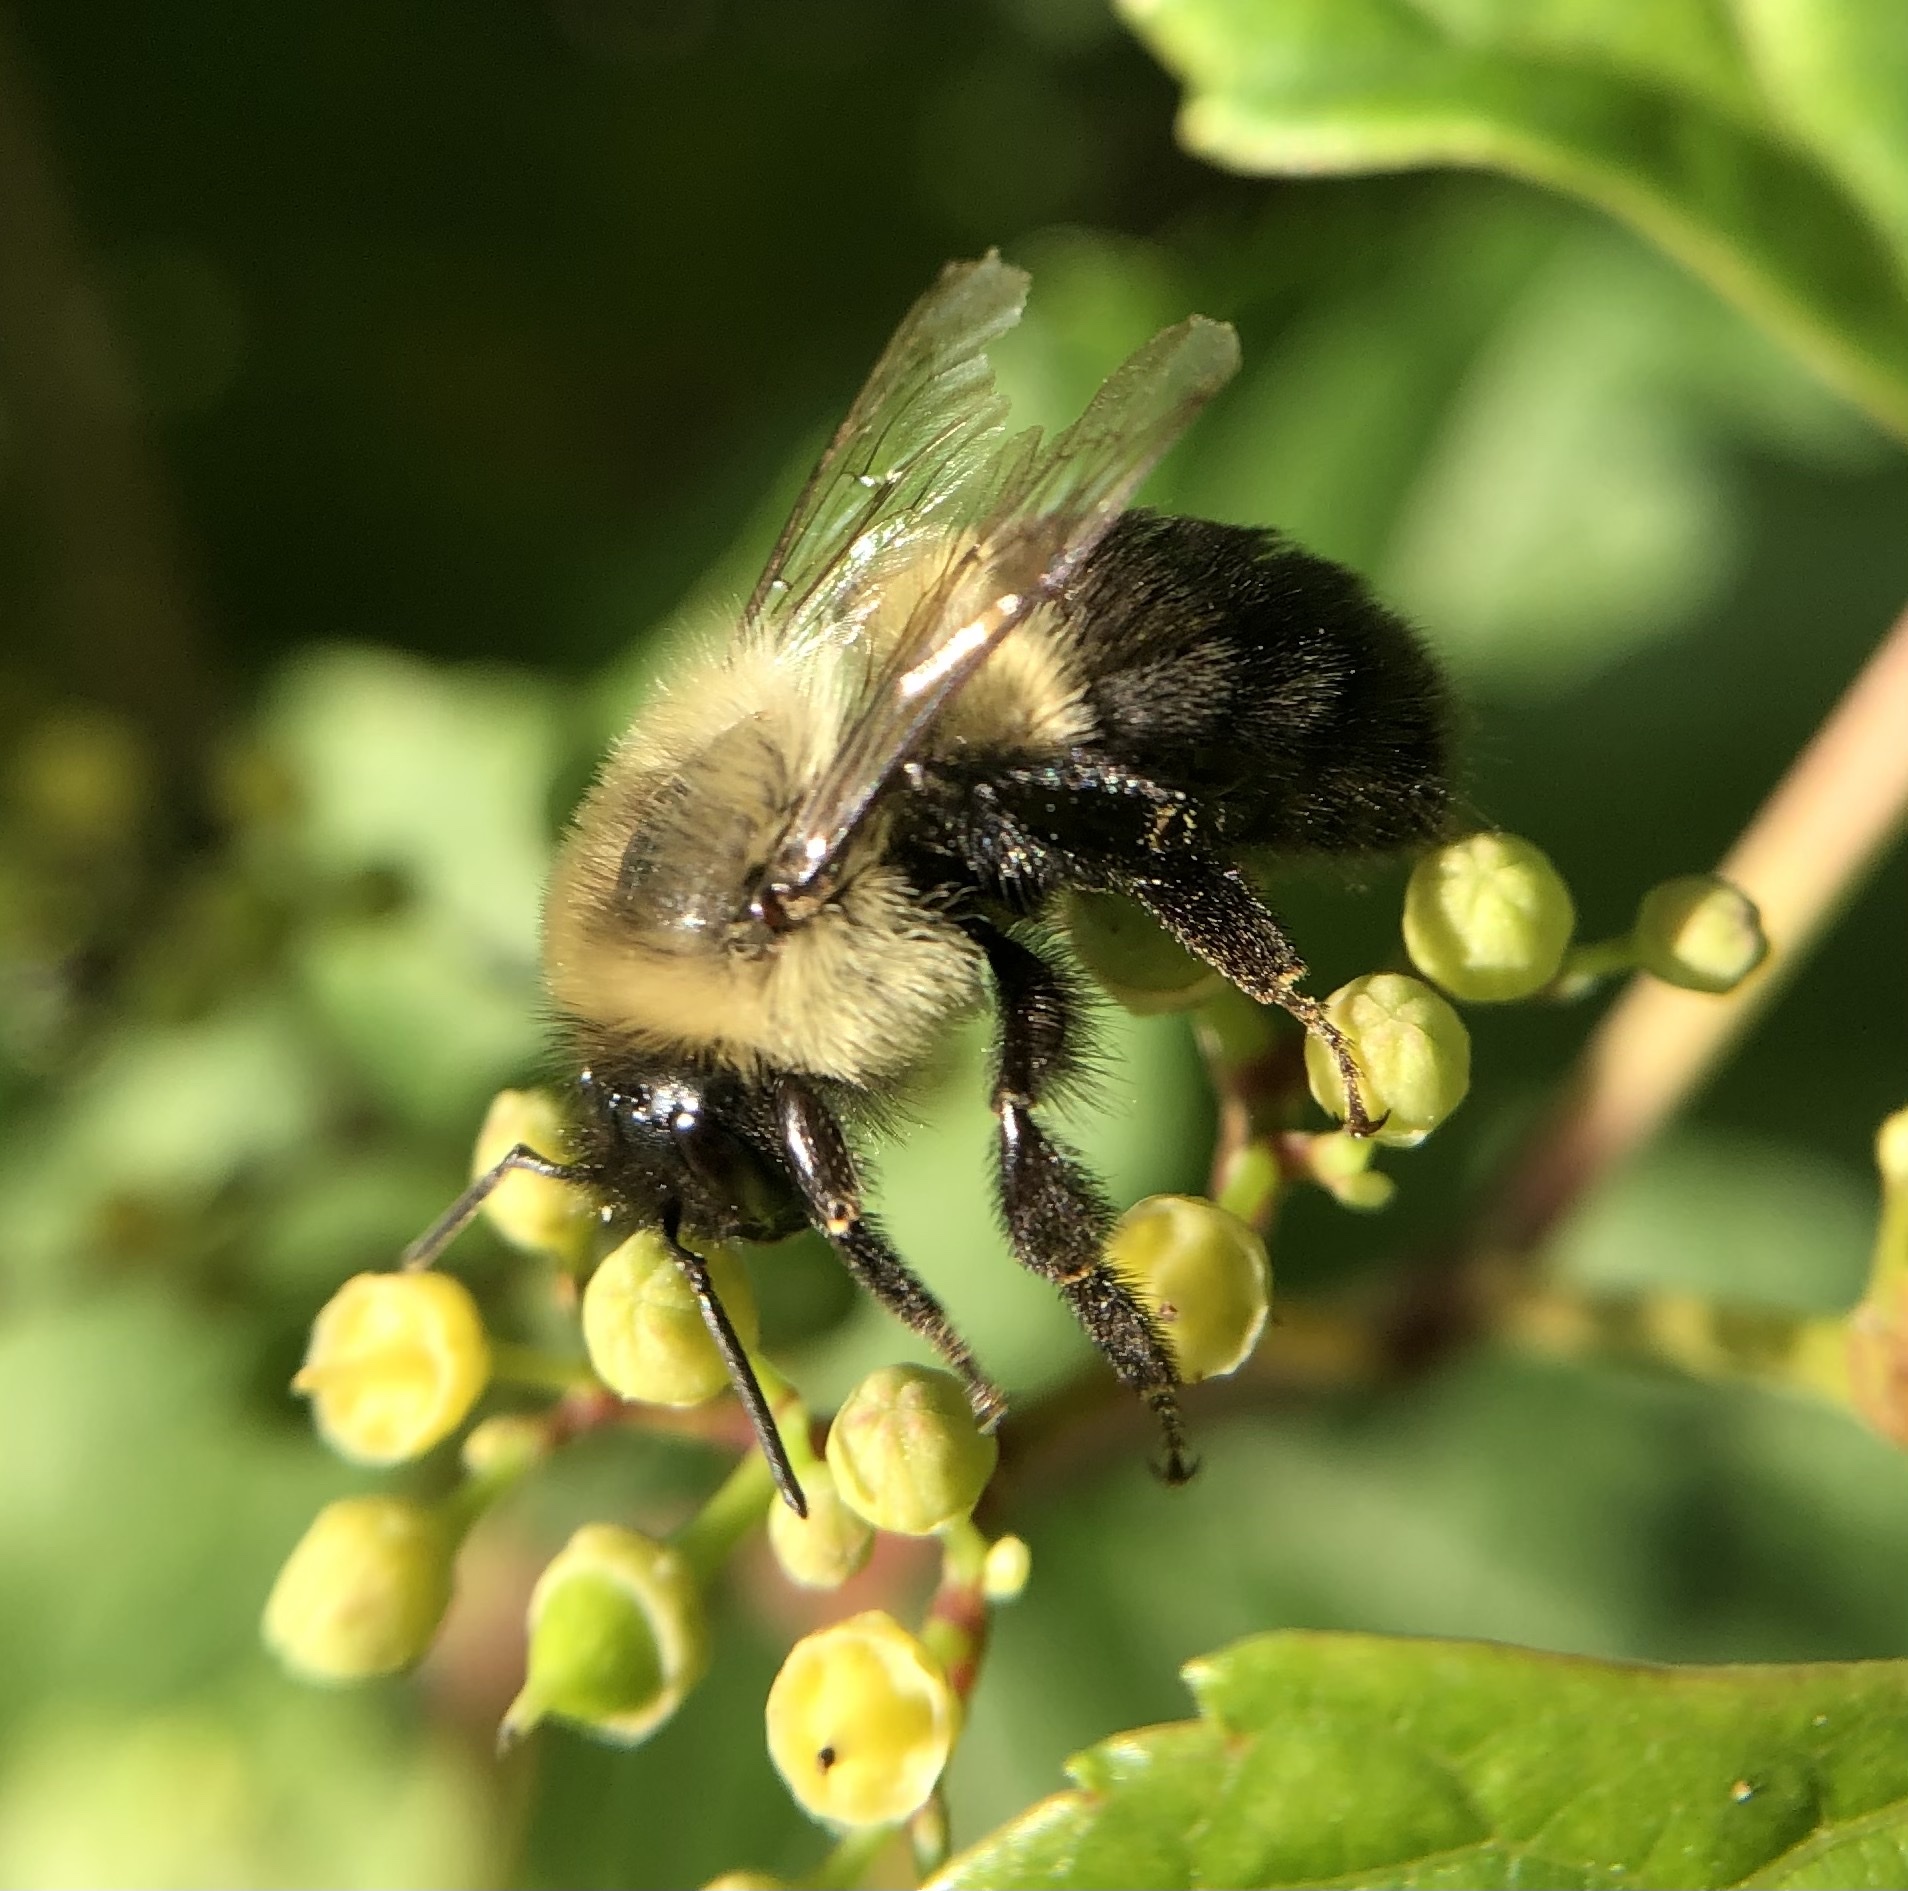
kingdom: Animalia
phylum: Arthropoda
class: Insecta
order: Hymenoptera
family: Apidae
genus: Bombus
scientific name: Bombus impatiens
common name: Common eastern bumble bee
